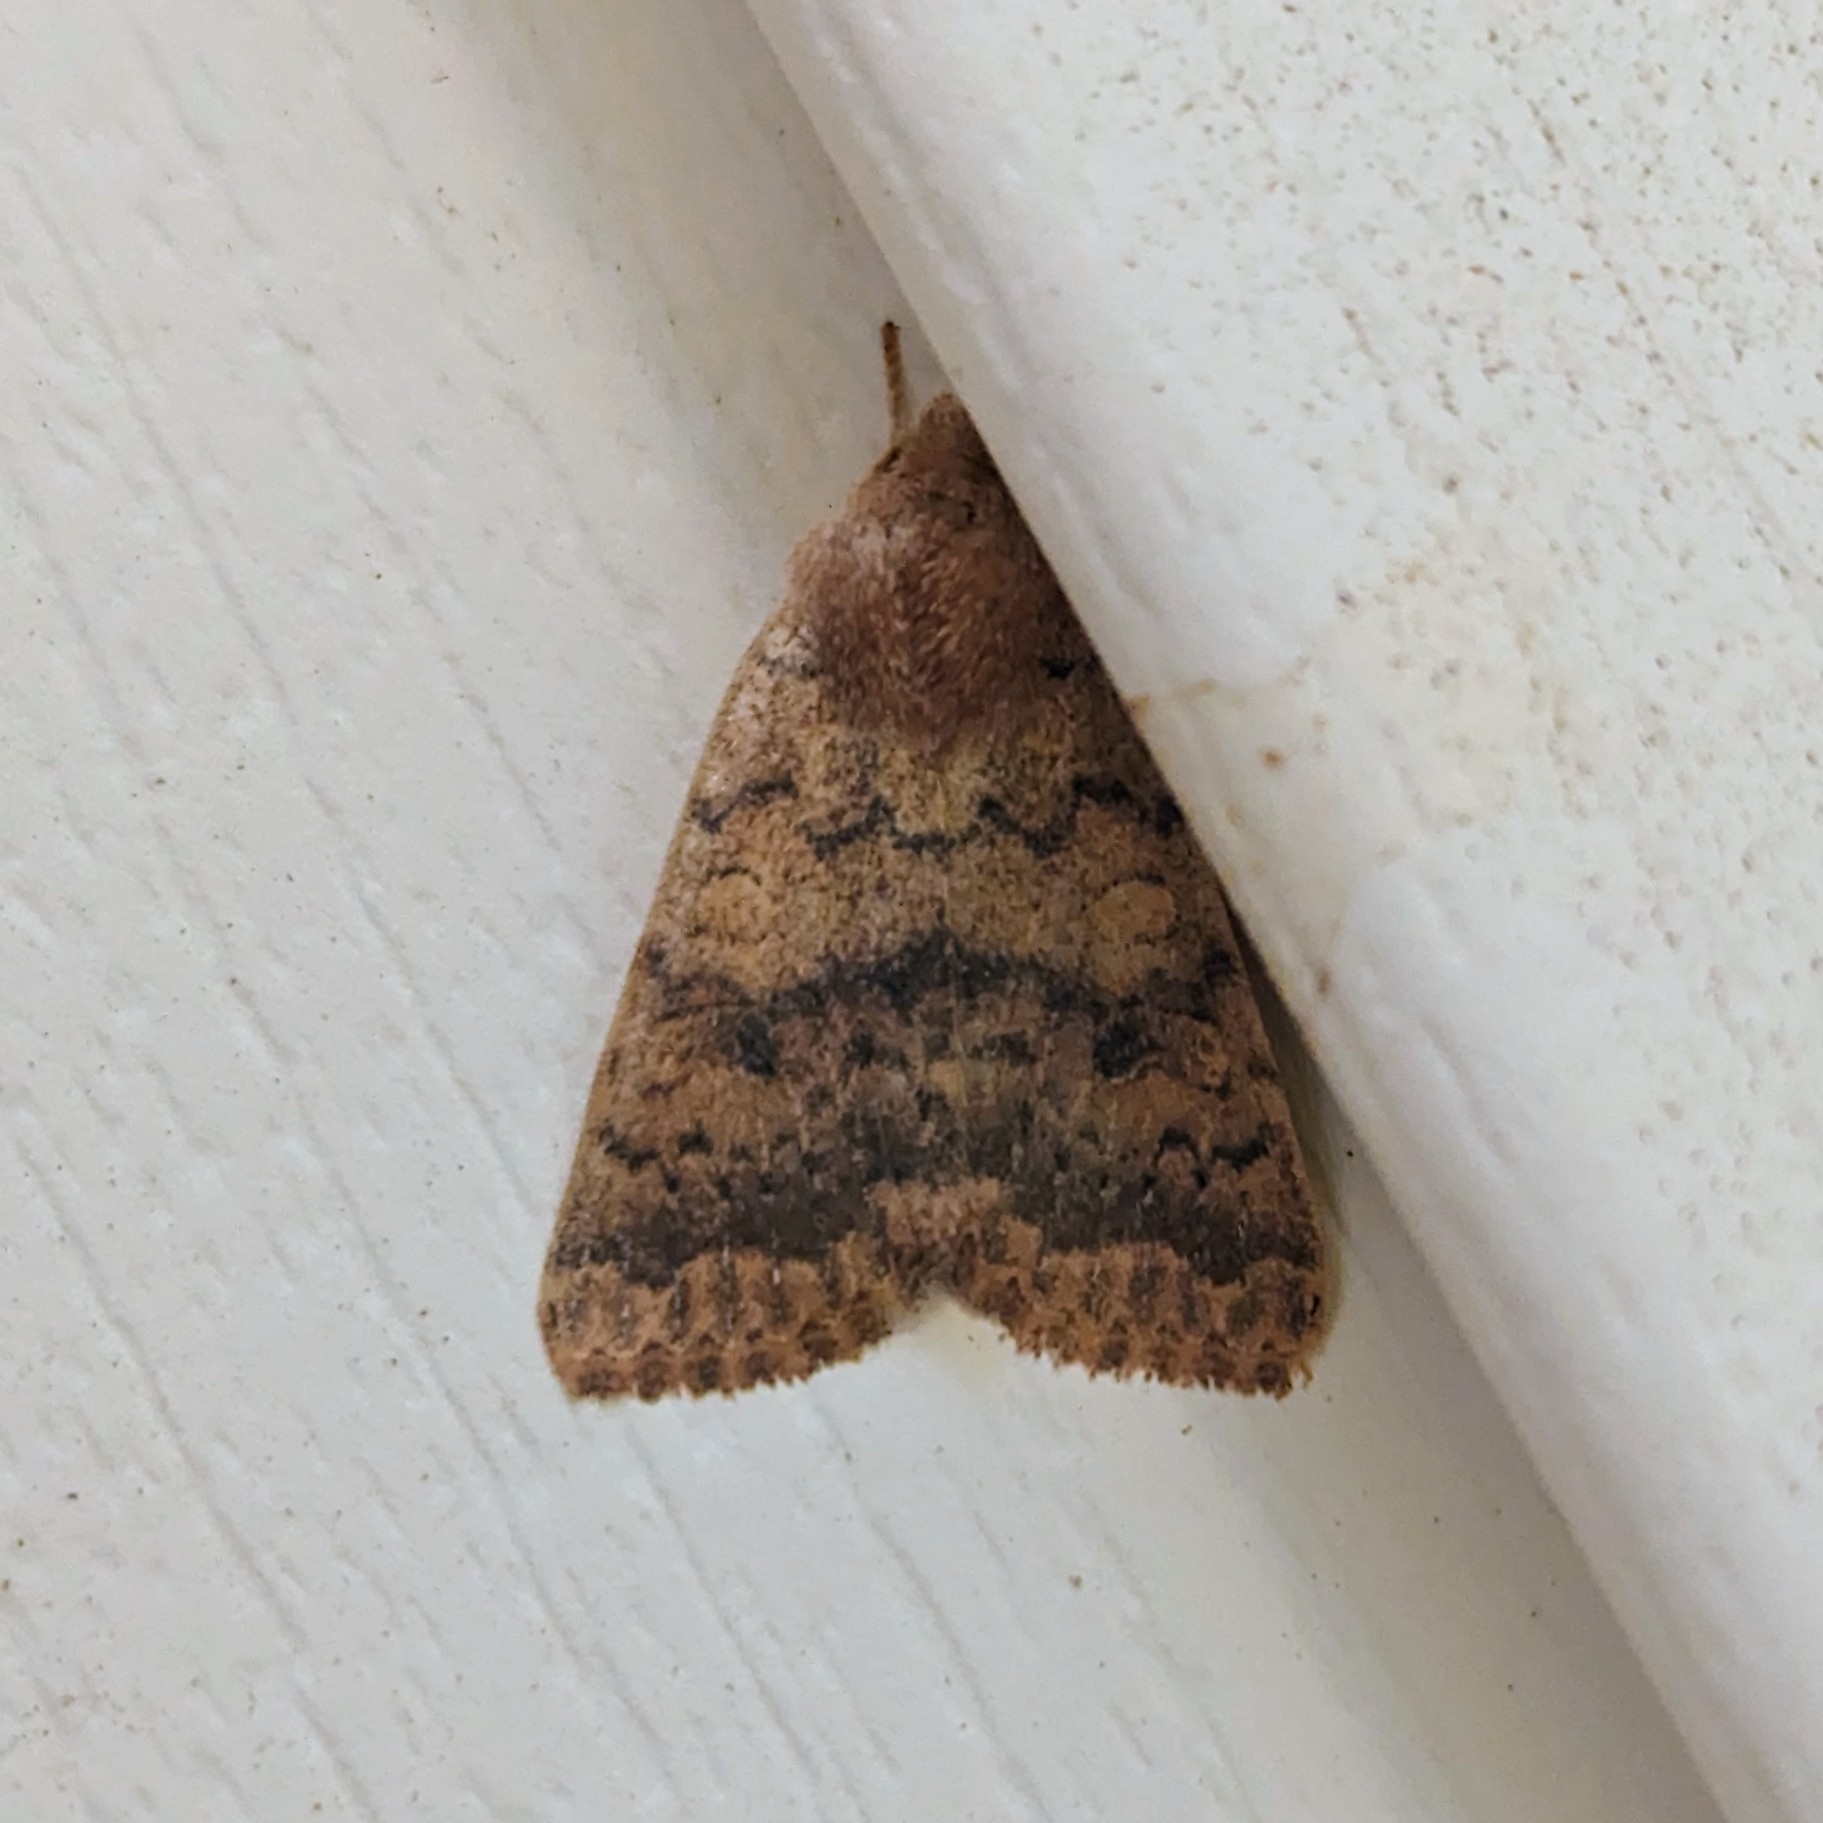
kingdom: Animalia
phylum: Arthropoda
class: Insecta
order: Lepidoptera
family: Noctuidae
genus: Agrochola
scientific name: Agrochola bicolorago
